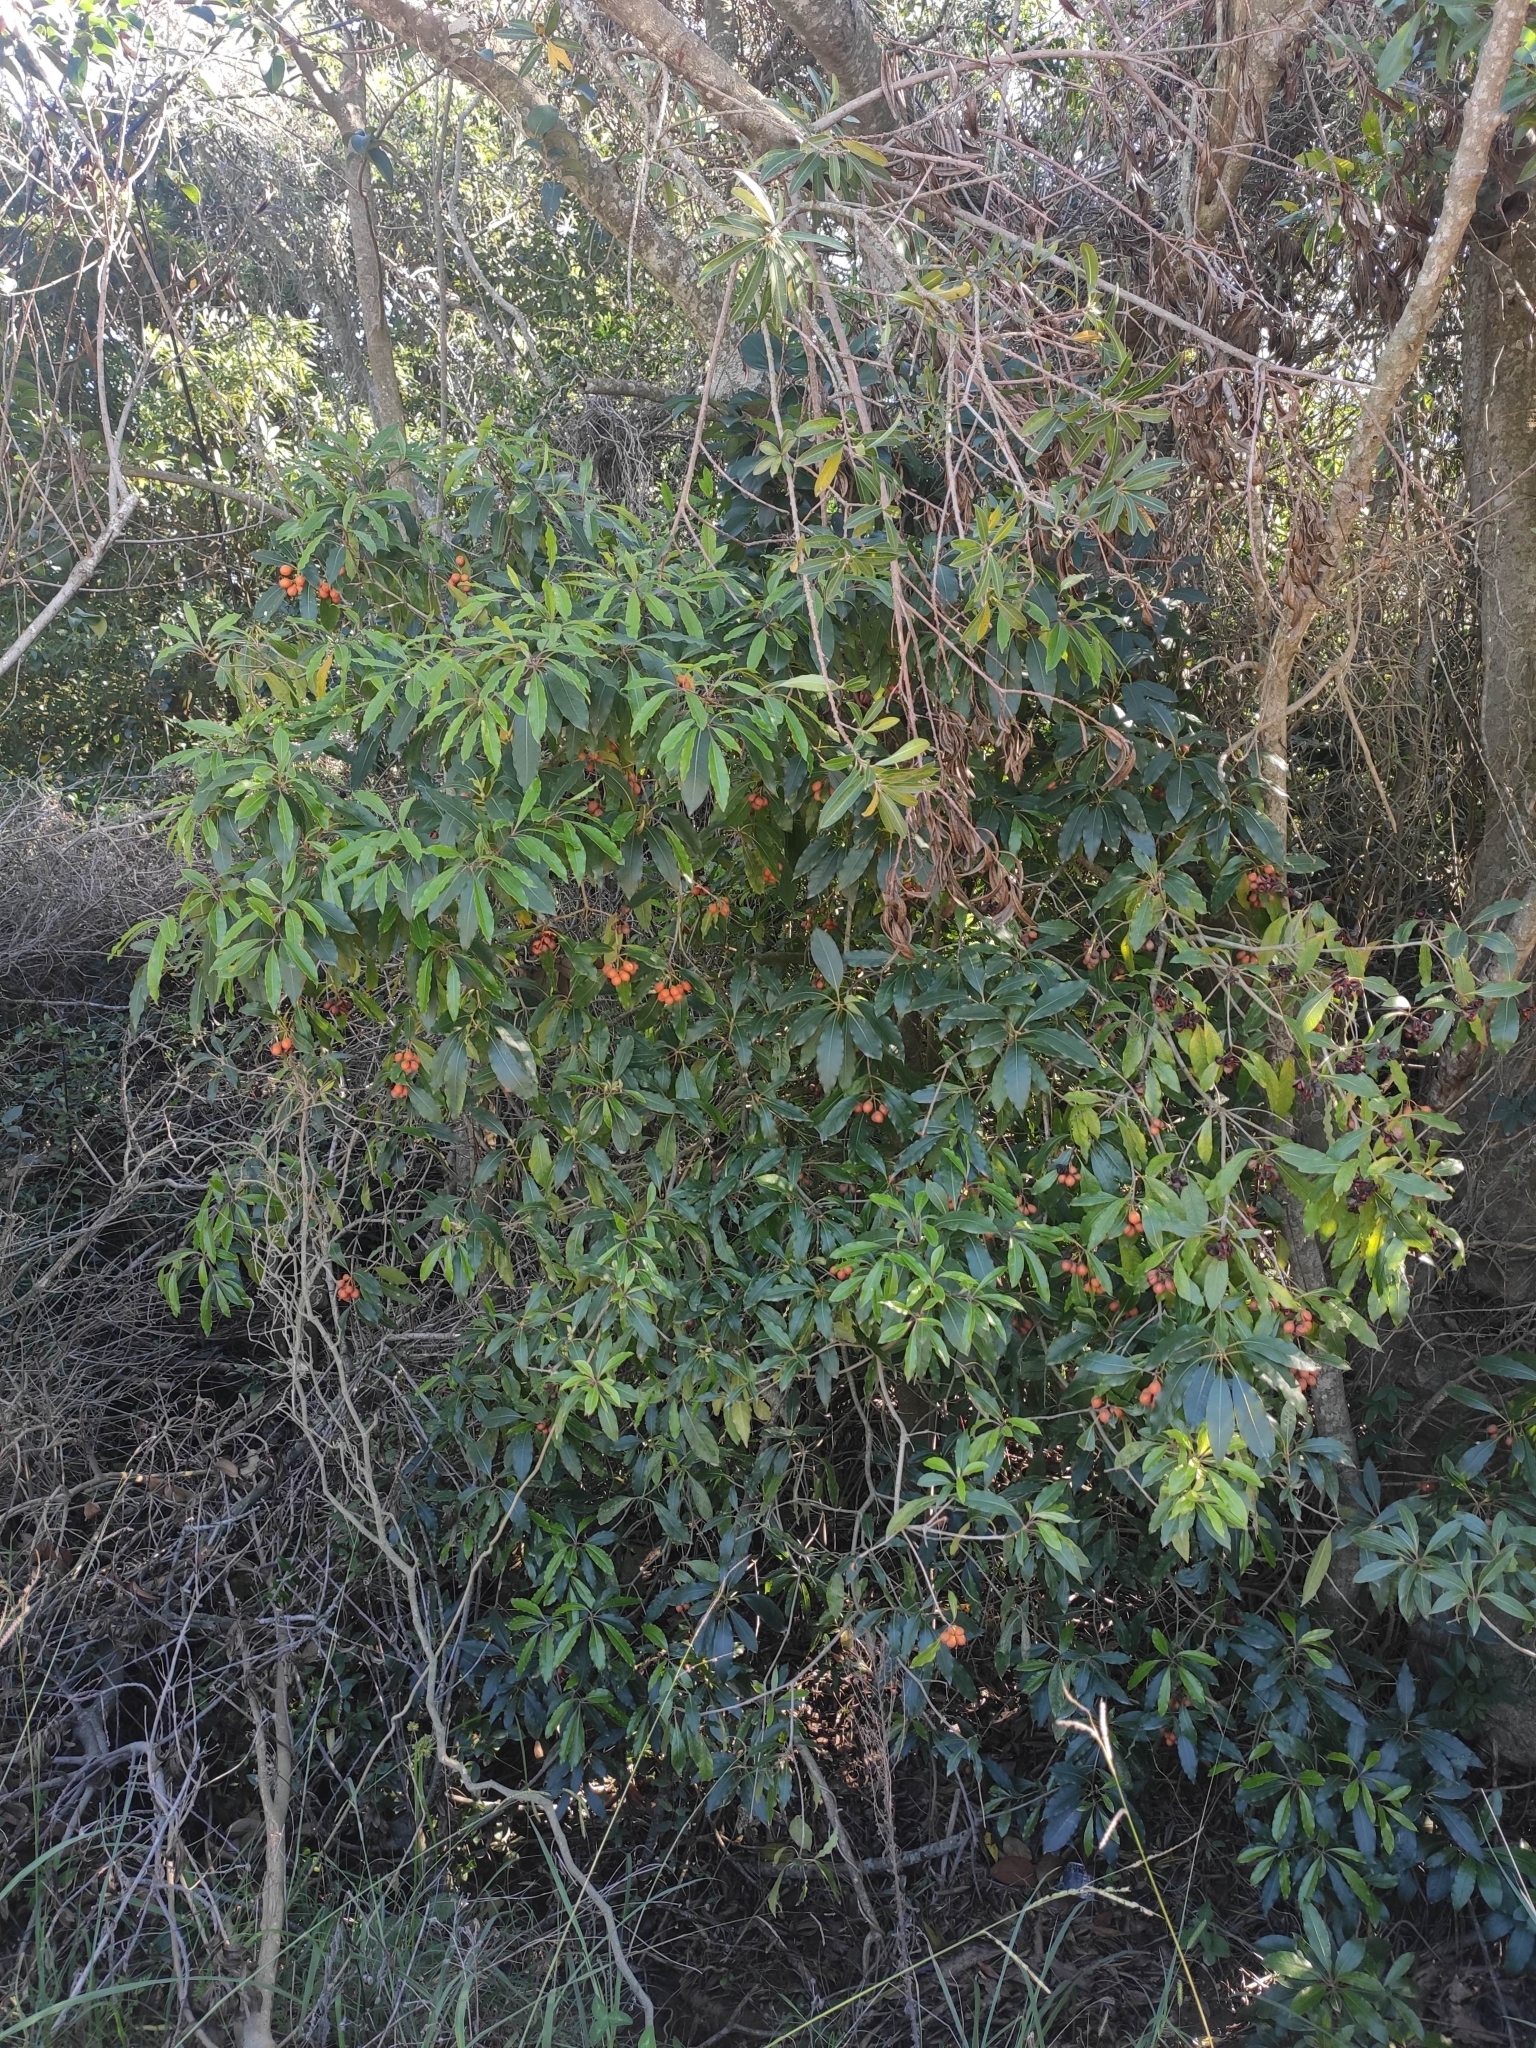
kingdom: Plantae
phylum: Tracheophyta
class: Magnoliopsida
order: Apiales
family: Pittosporaceae
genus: Pittosporum
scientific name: Pittosporum undulatum
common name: Australian cheesewood
